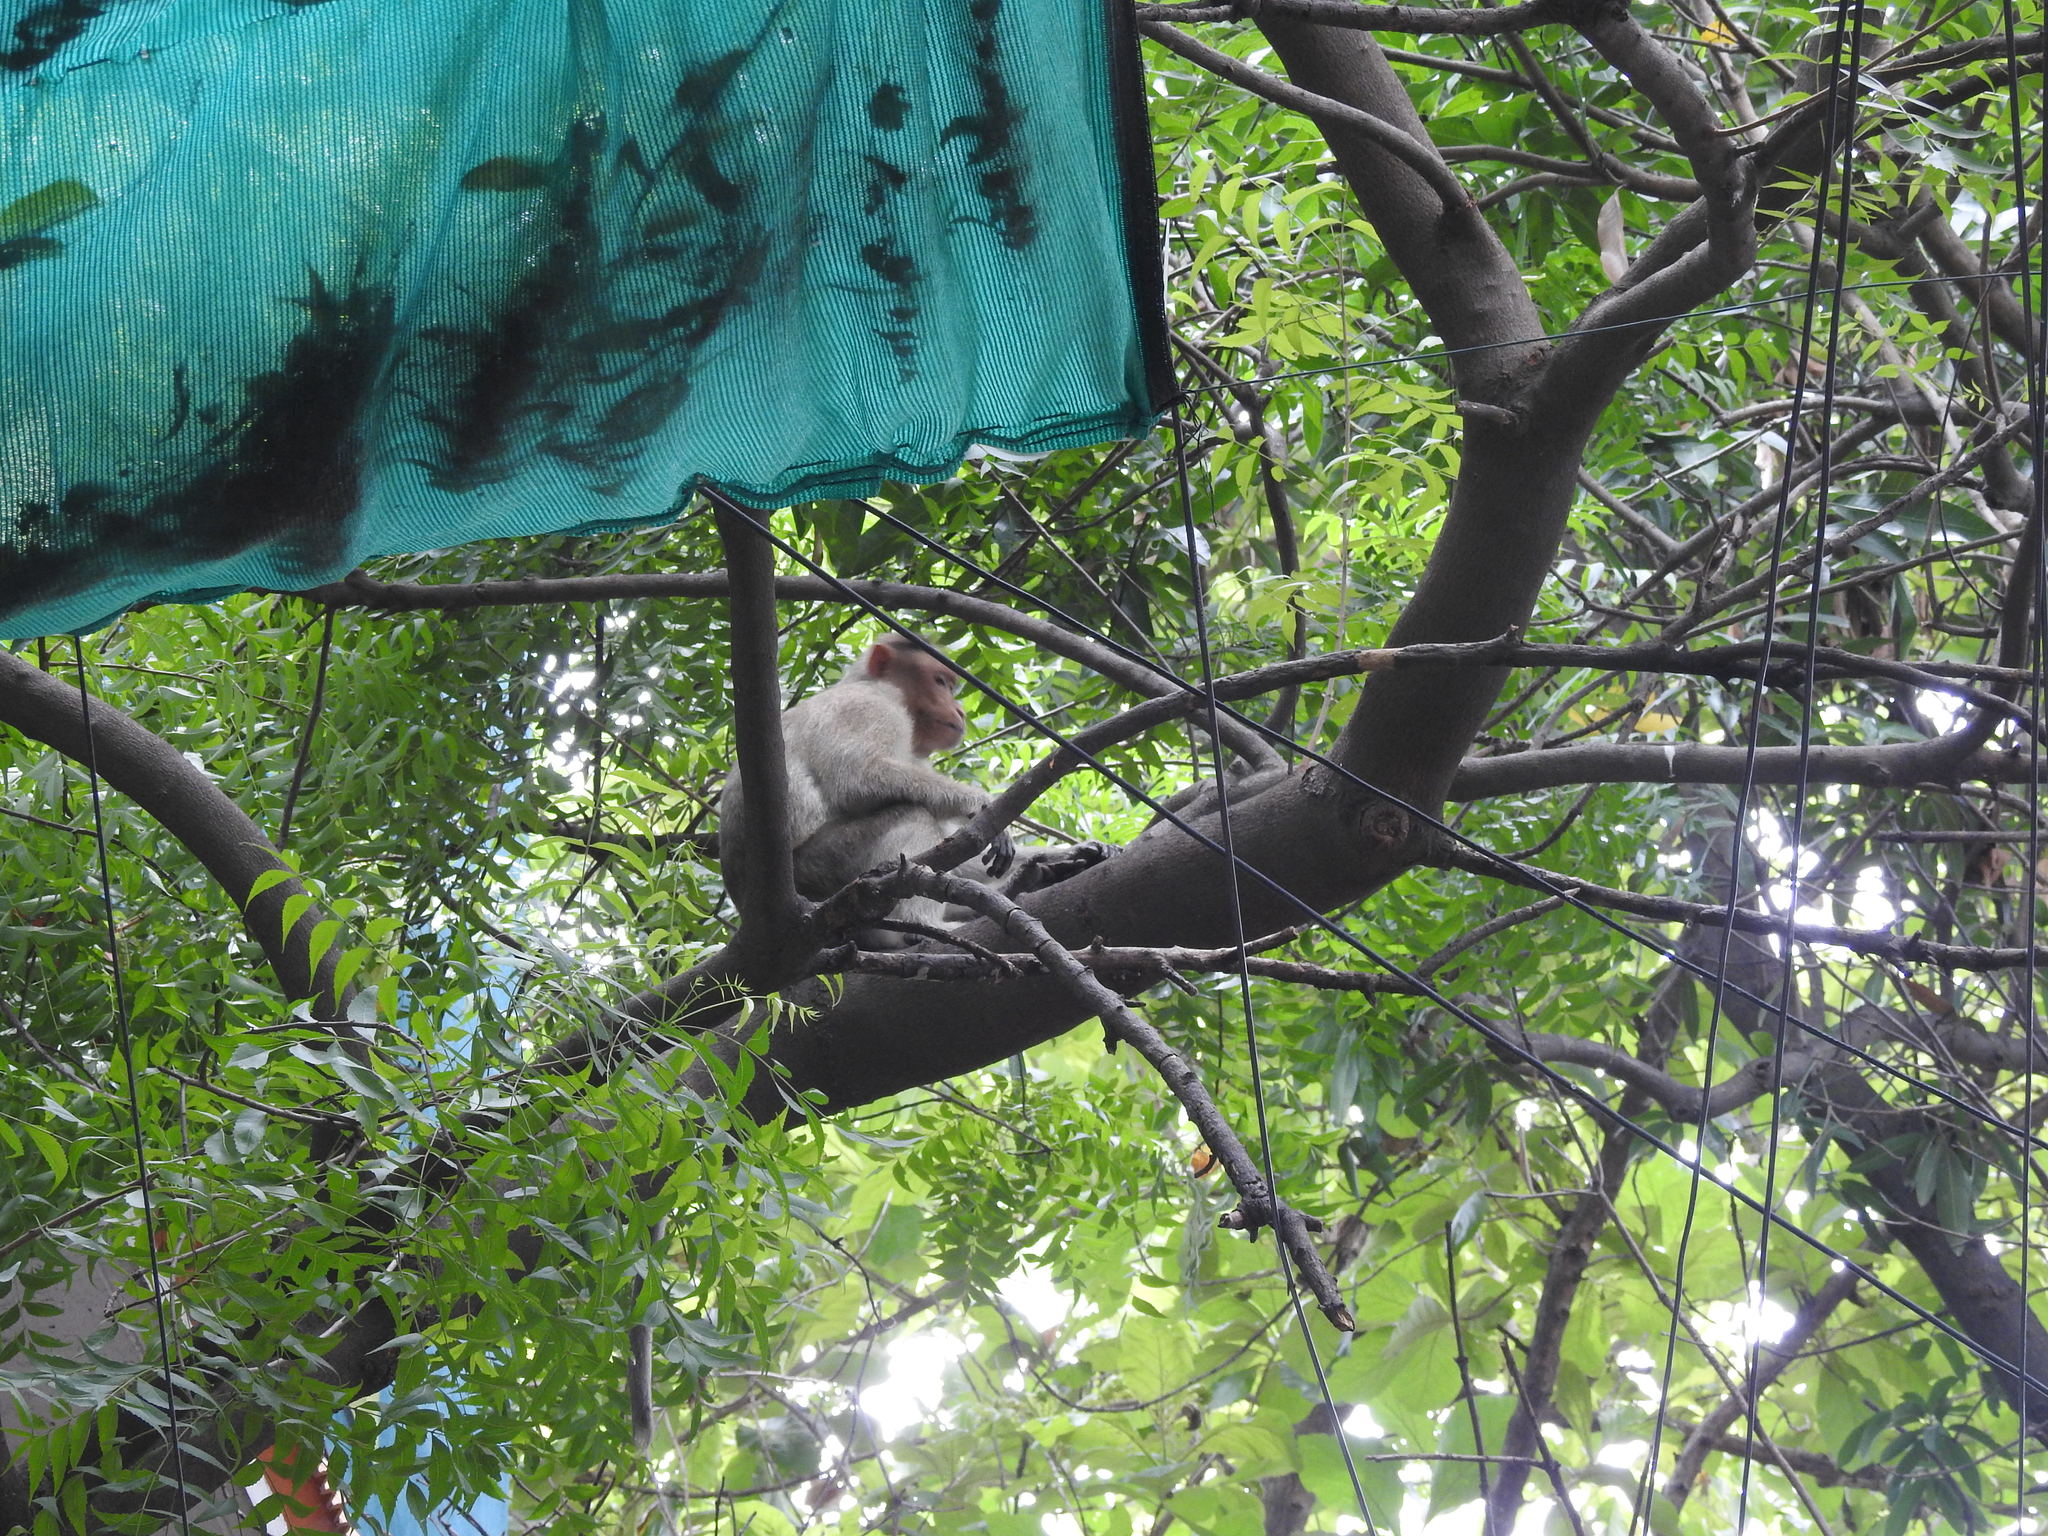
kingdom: Animalia
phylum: Chordata
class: Mammalia
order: Primates
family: Cercopithecidae
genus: Macaca
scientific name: Macaca radiata
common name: Bonnet macaque
